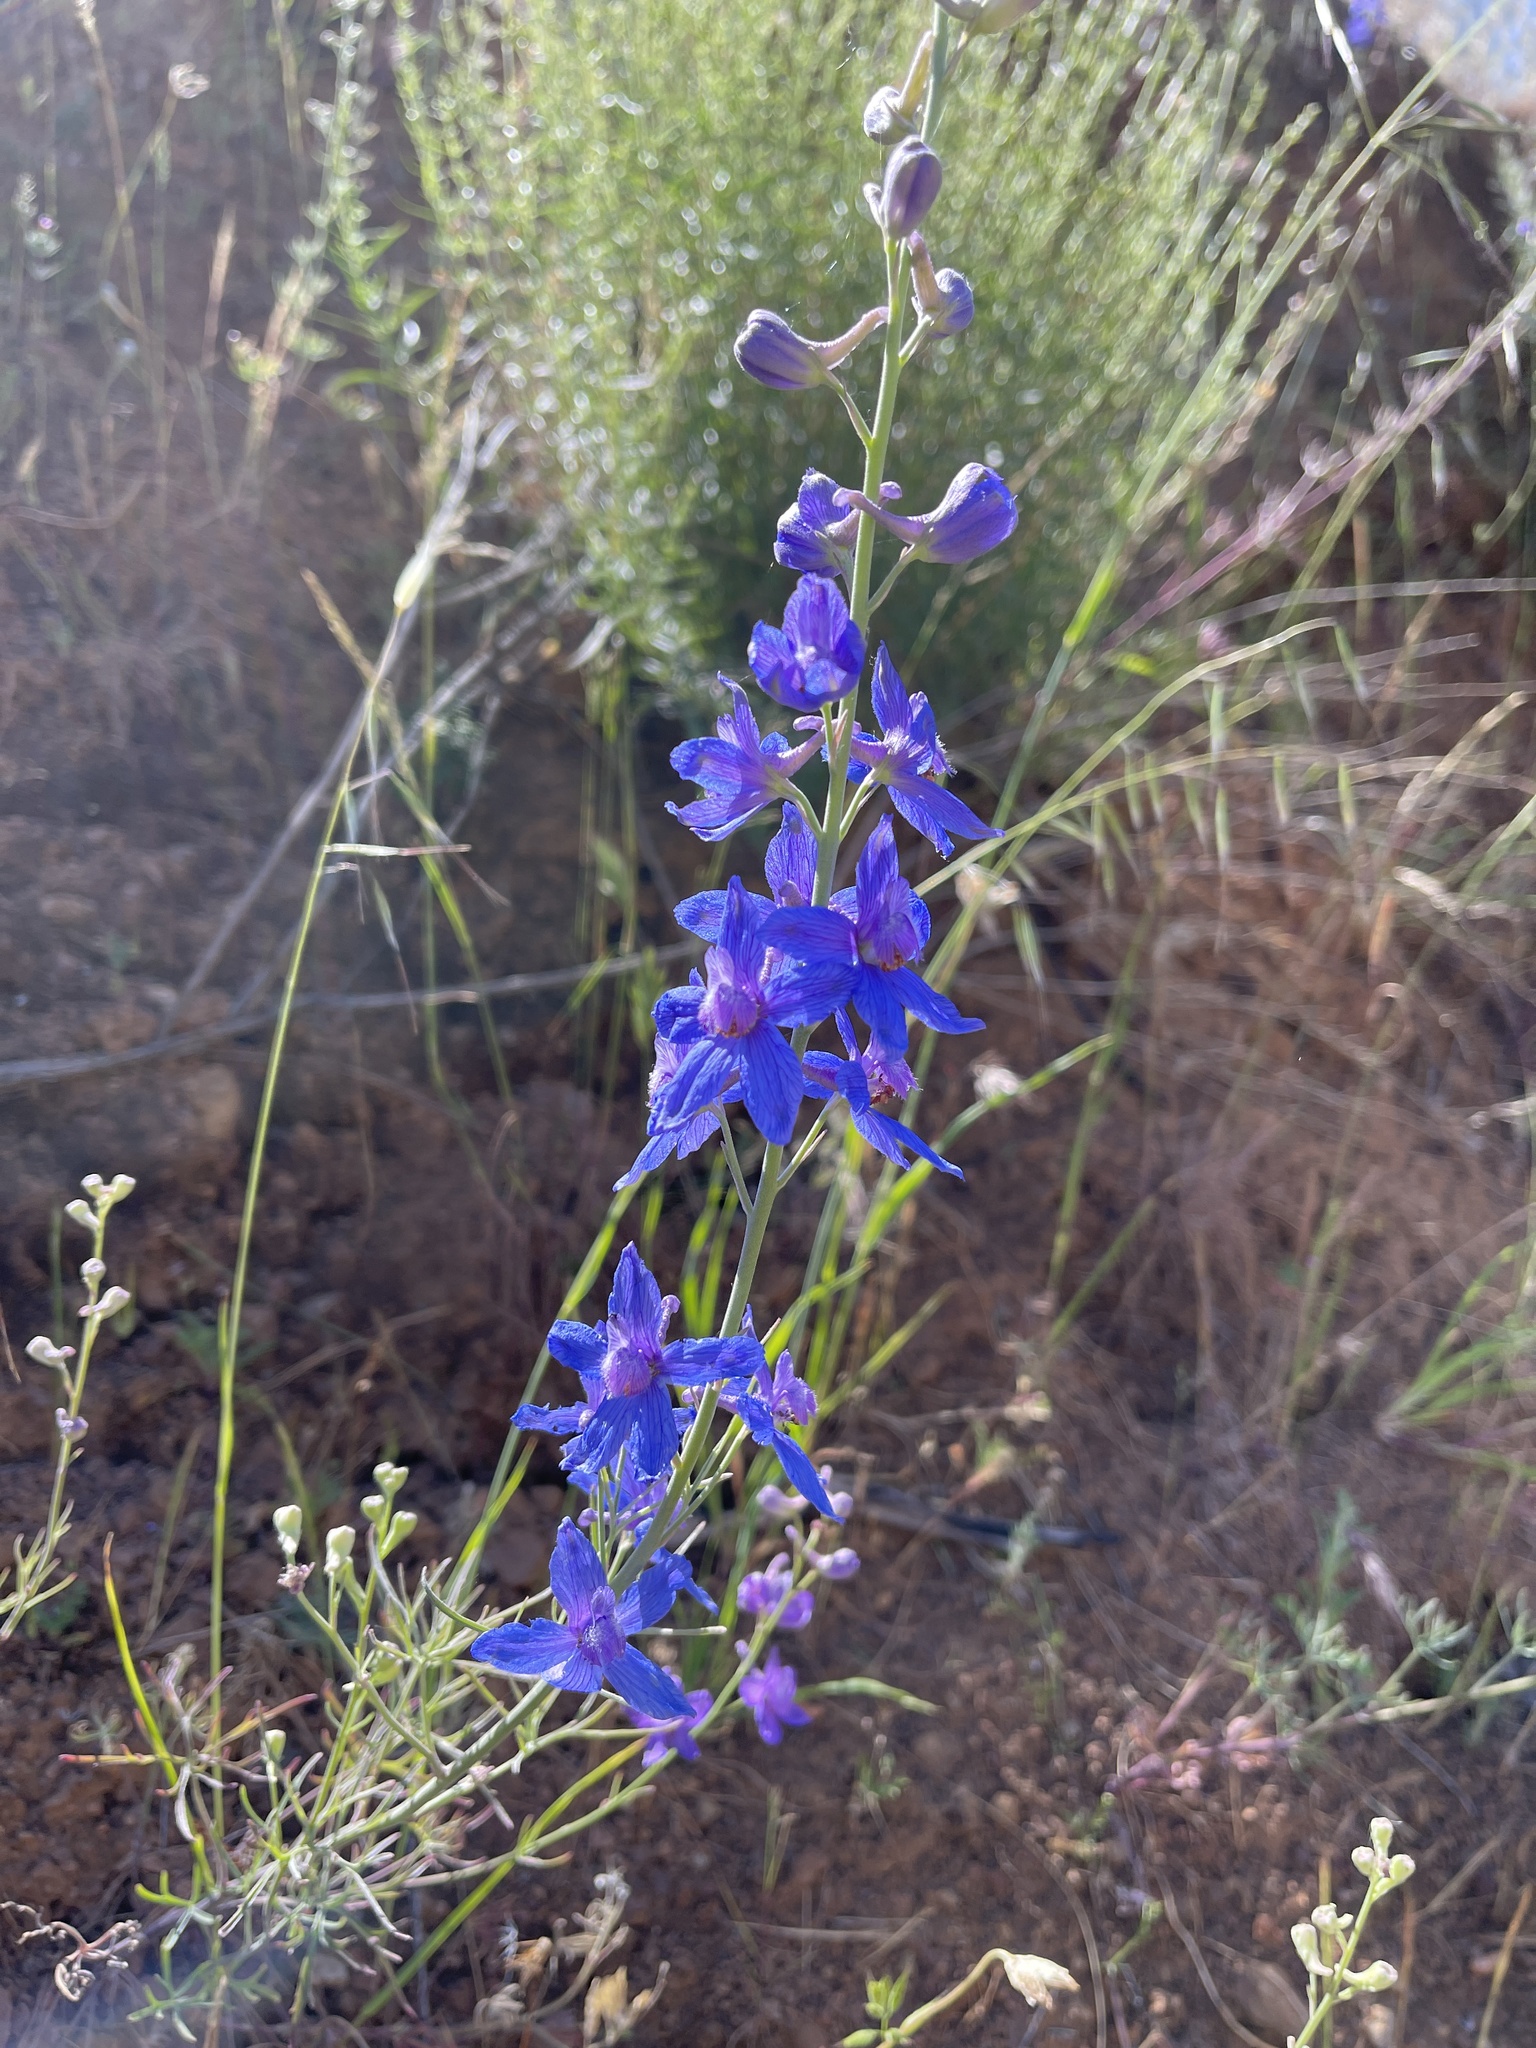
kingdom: Plantae
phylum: Tracheophyta
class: Magnoliopsida
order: Ranunculales
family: Ranunculaceae
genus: Delphinium
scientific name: Delphinium parryi
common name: Parry's larkspur
